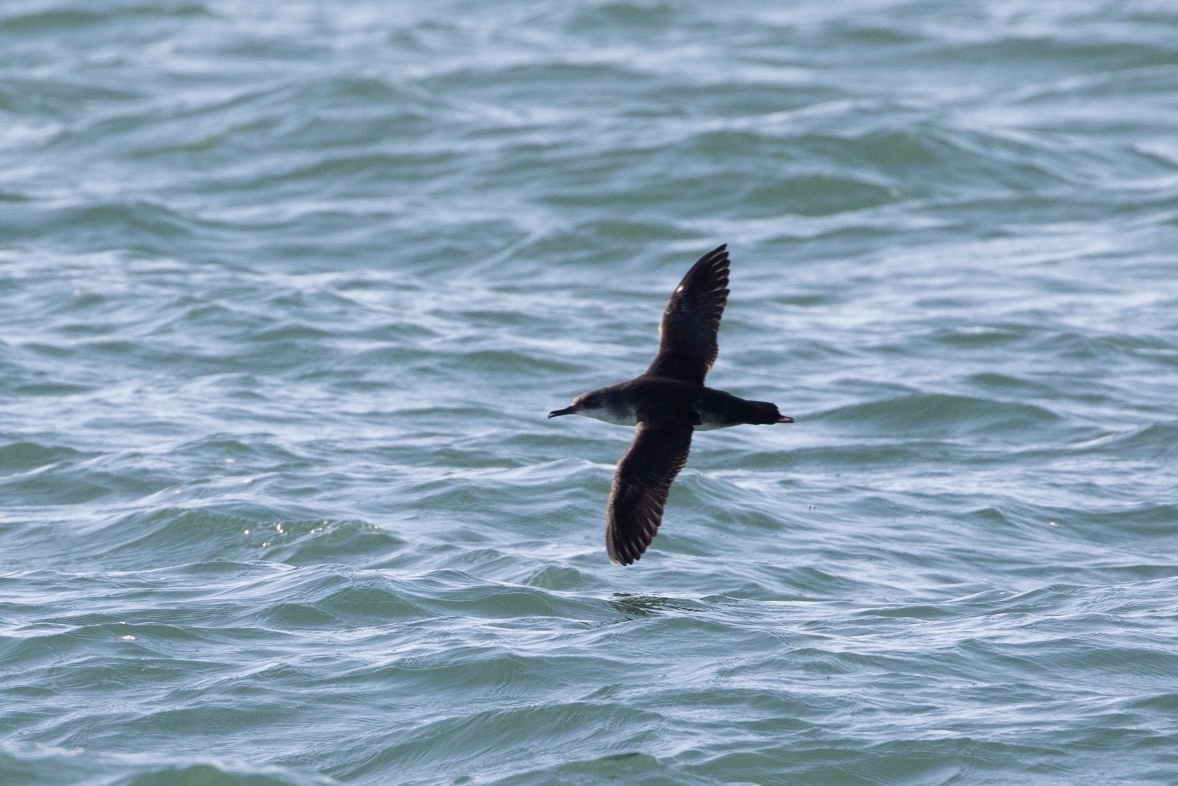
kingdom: Animalia
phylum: Chordata
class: Aves
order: Procellariiformes
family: Procellariidae
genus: Puffinus
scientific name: Puffinus yelkouan
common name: Yelkouan shearwater
